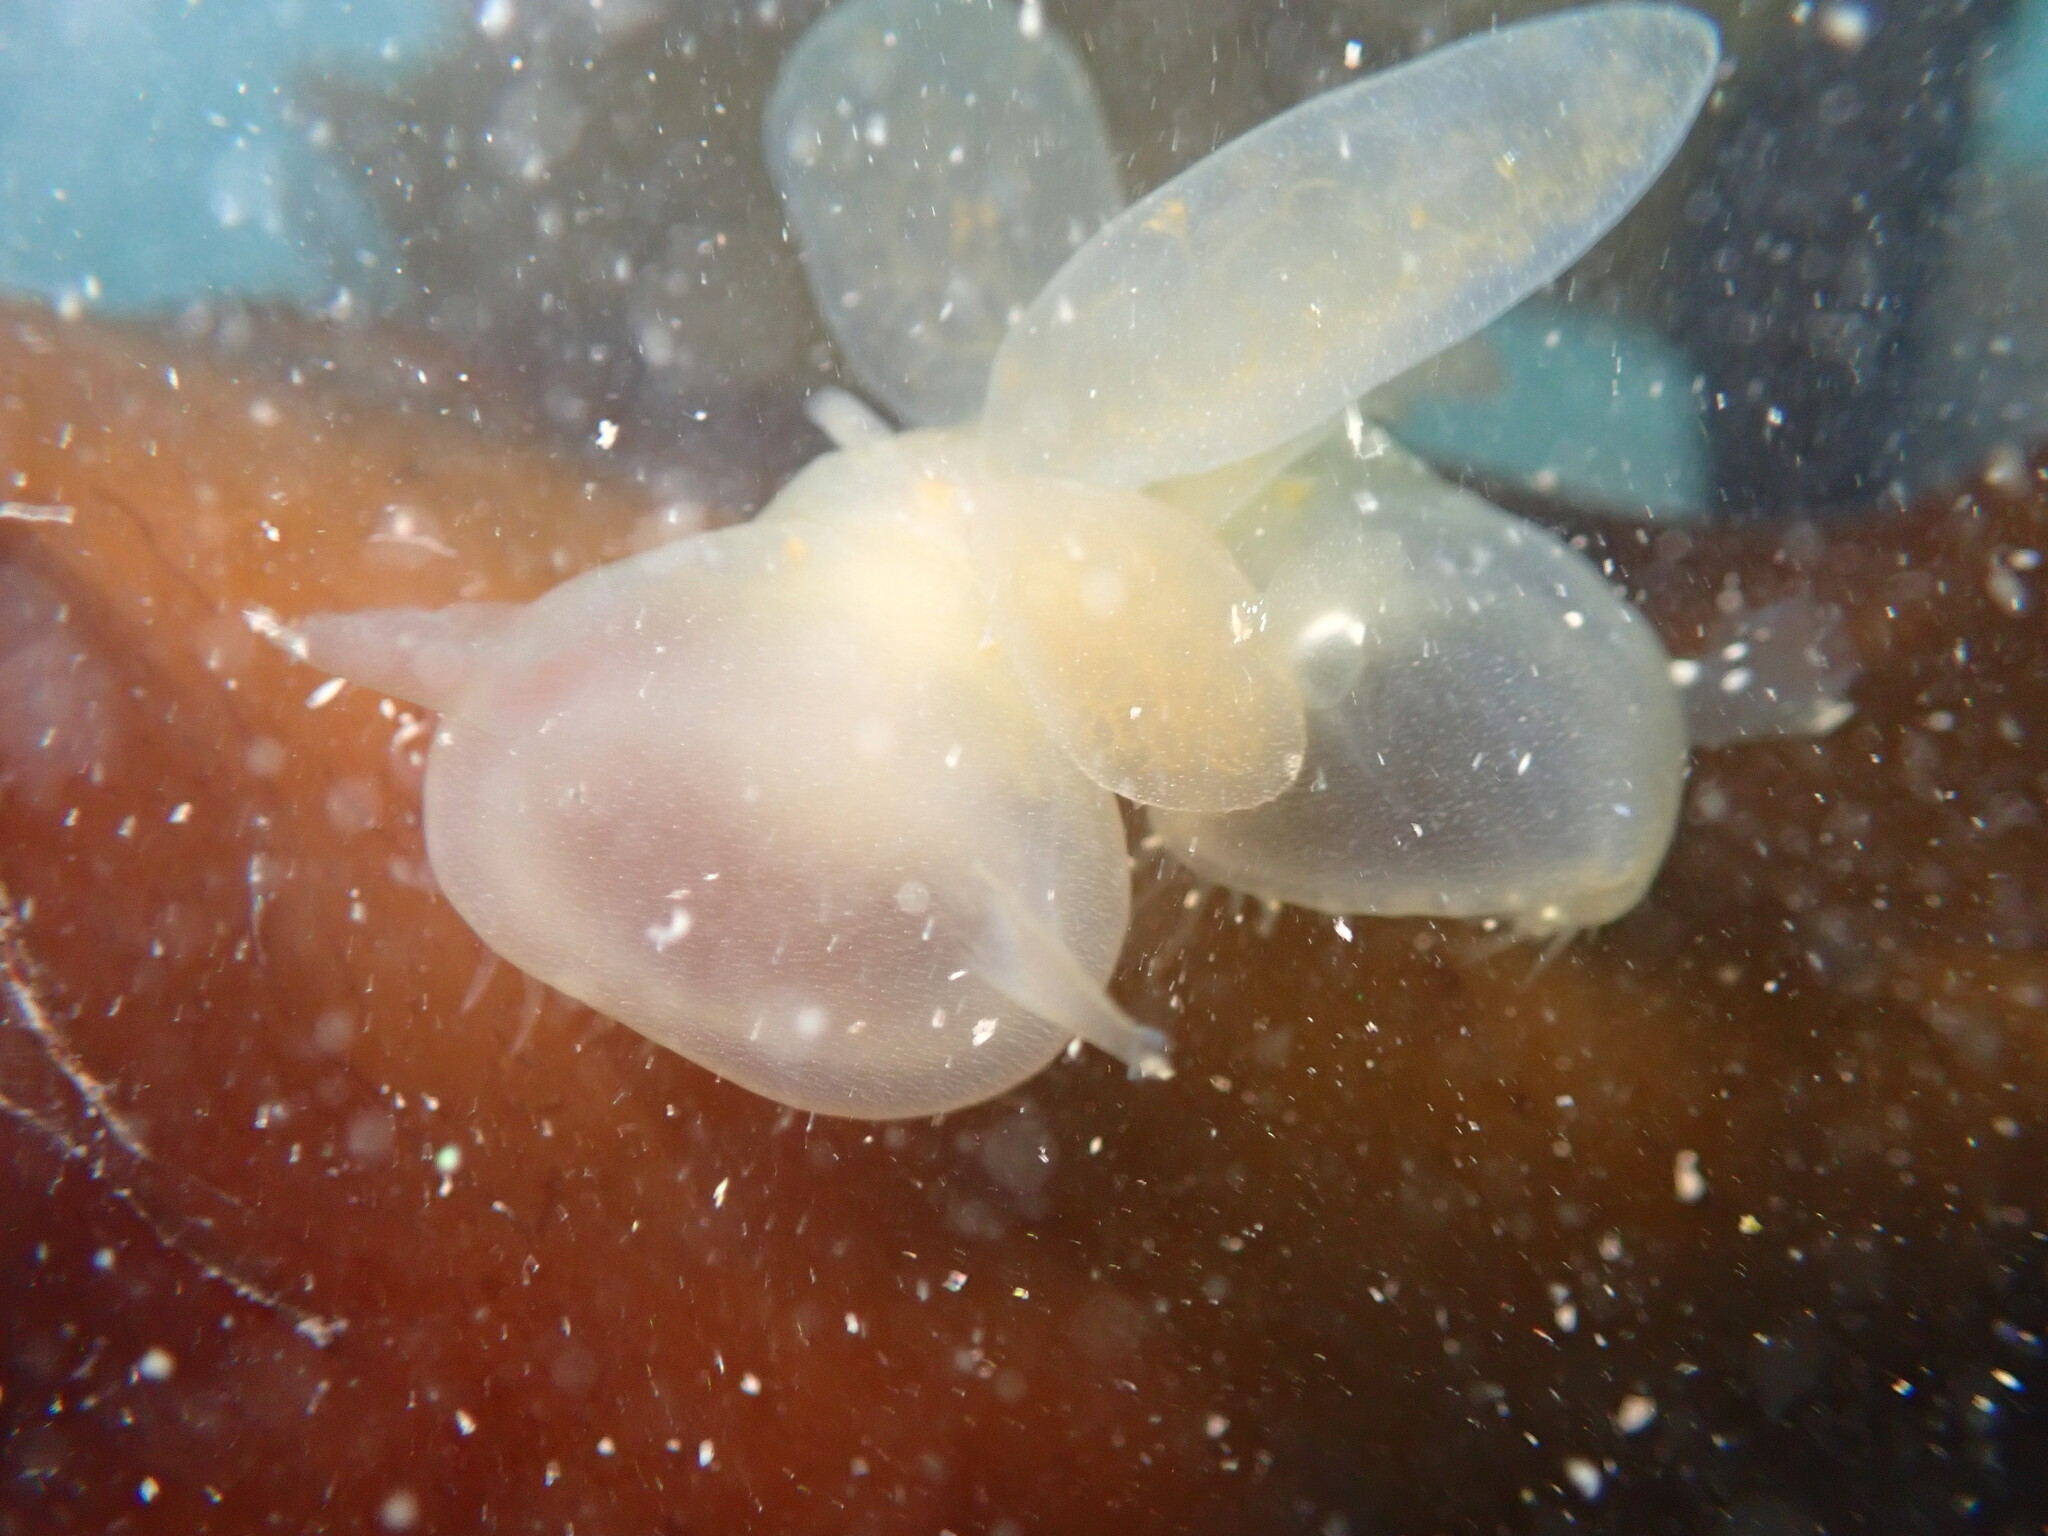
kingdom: Animalia
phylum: Mollusca
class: Gastropoda
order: Nudibranchia
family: Tethydidae
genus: Melibe
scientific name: Melibe leonina
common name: Lion nudibranch
